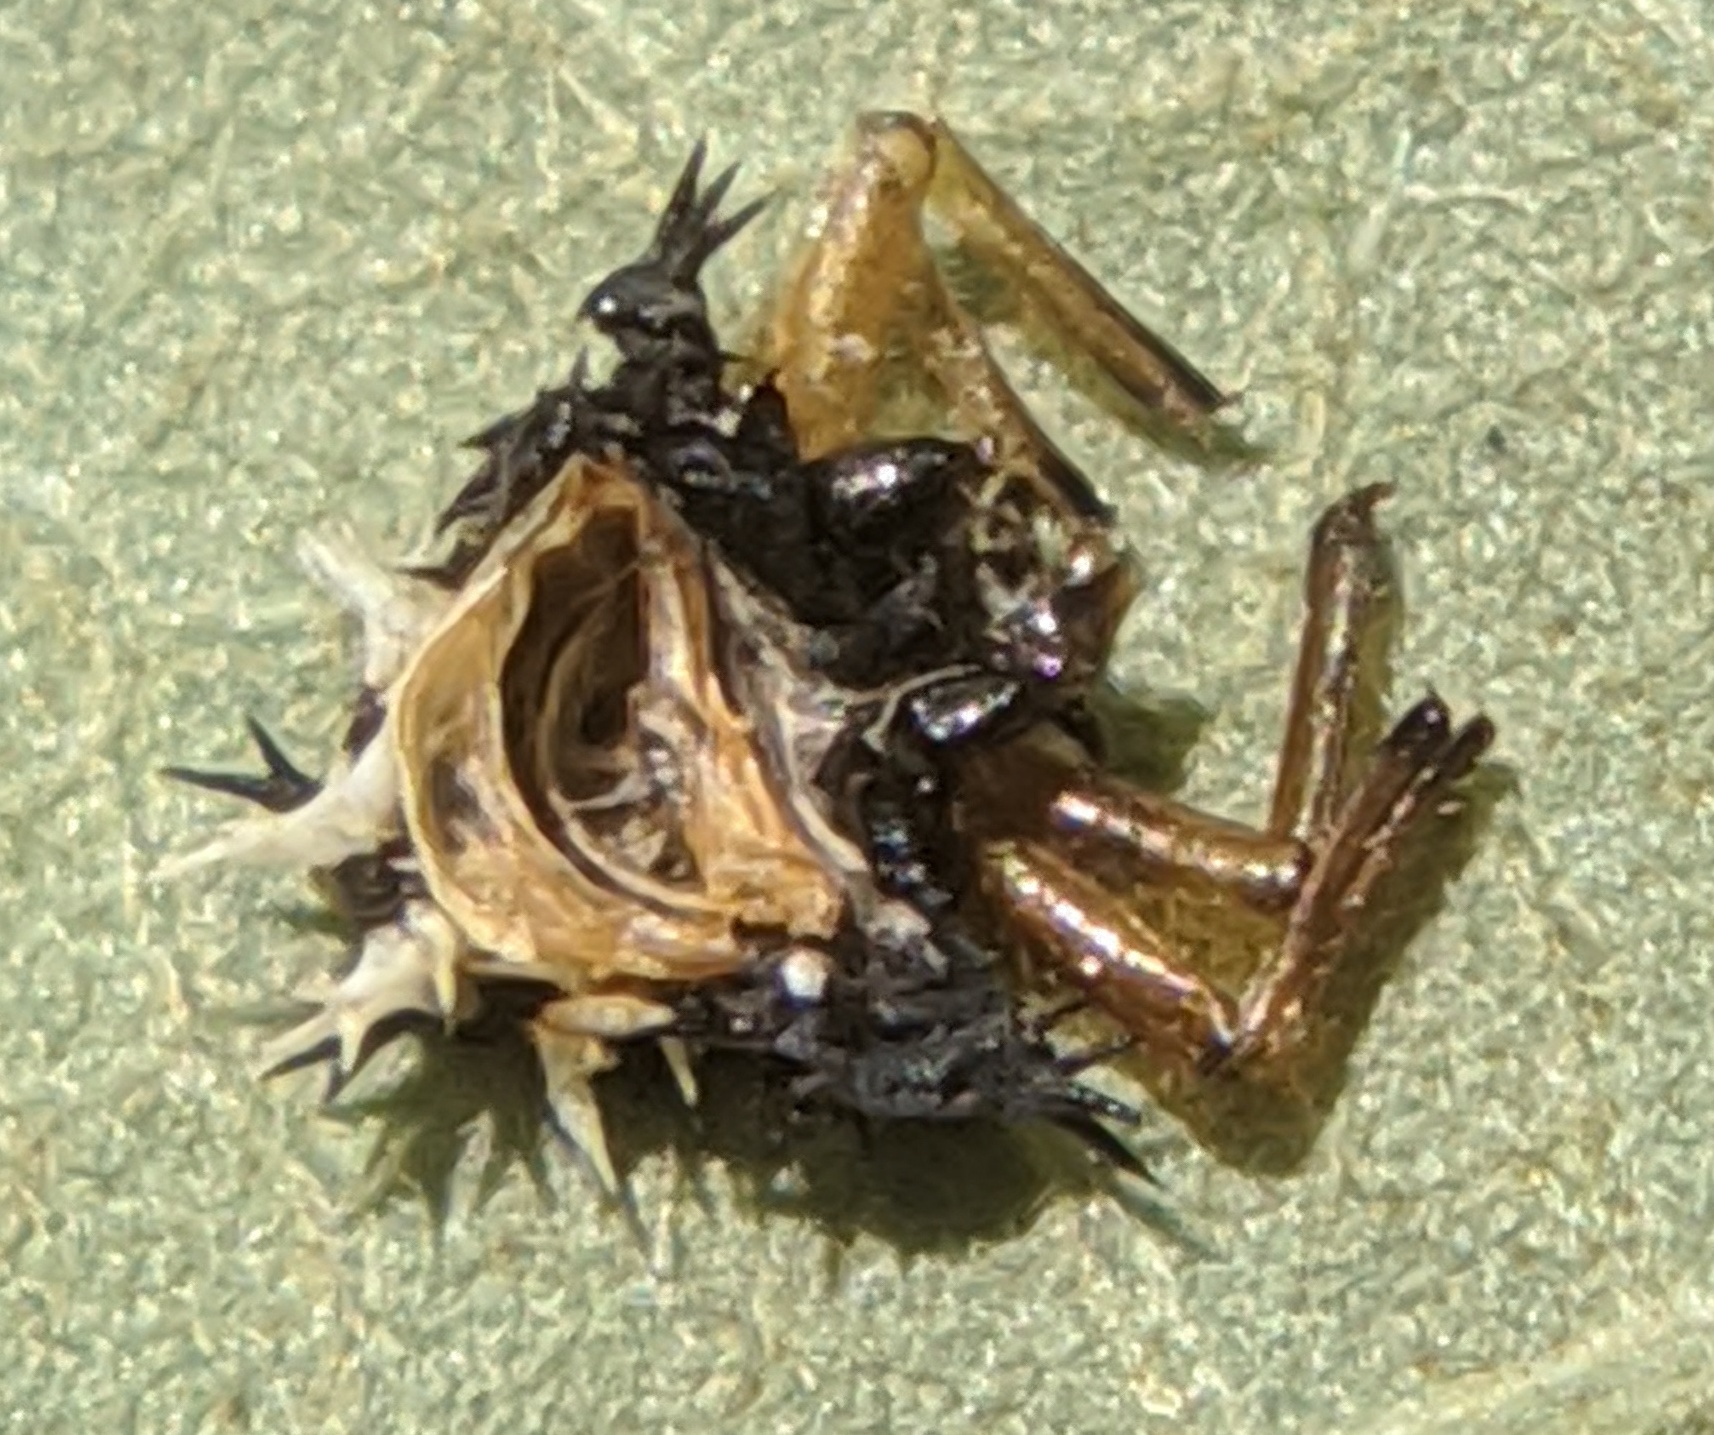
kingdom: Animalia
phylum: Arthropoda
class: Insecta
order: Coleoptera
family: Coccinellidae
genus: Harmonia
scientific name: Harmonia axyridis
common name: Harlequin ladybird
